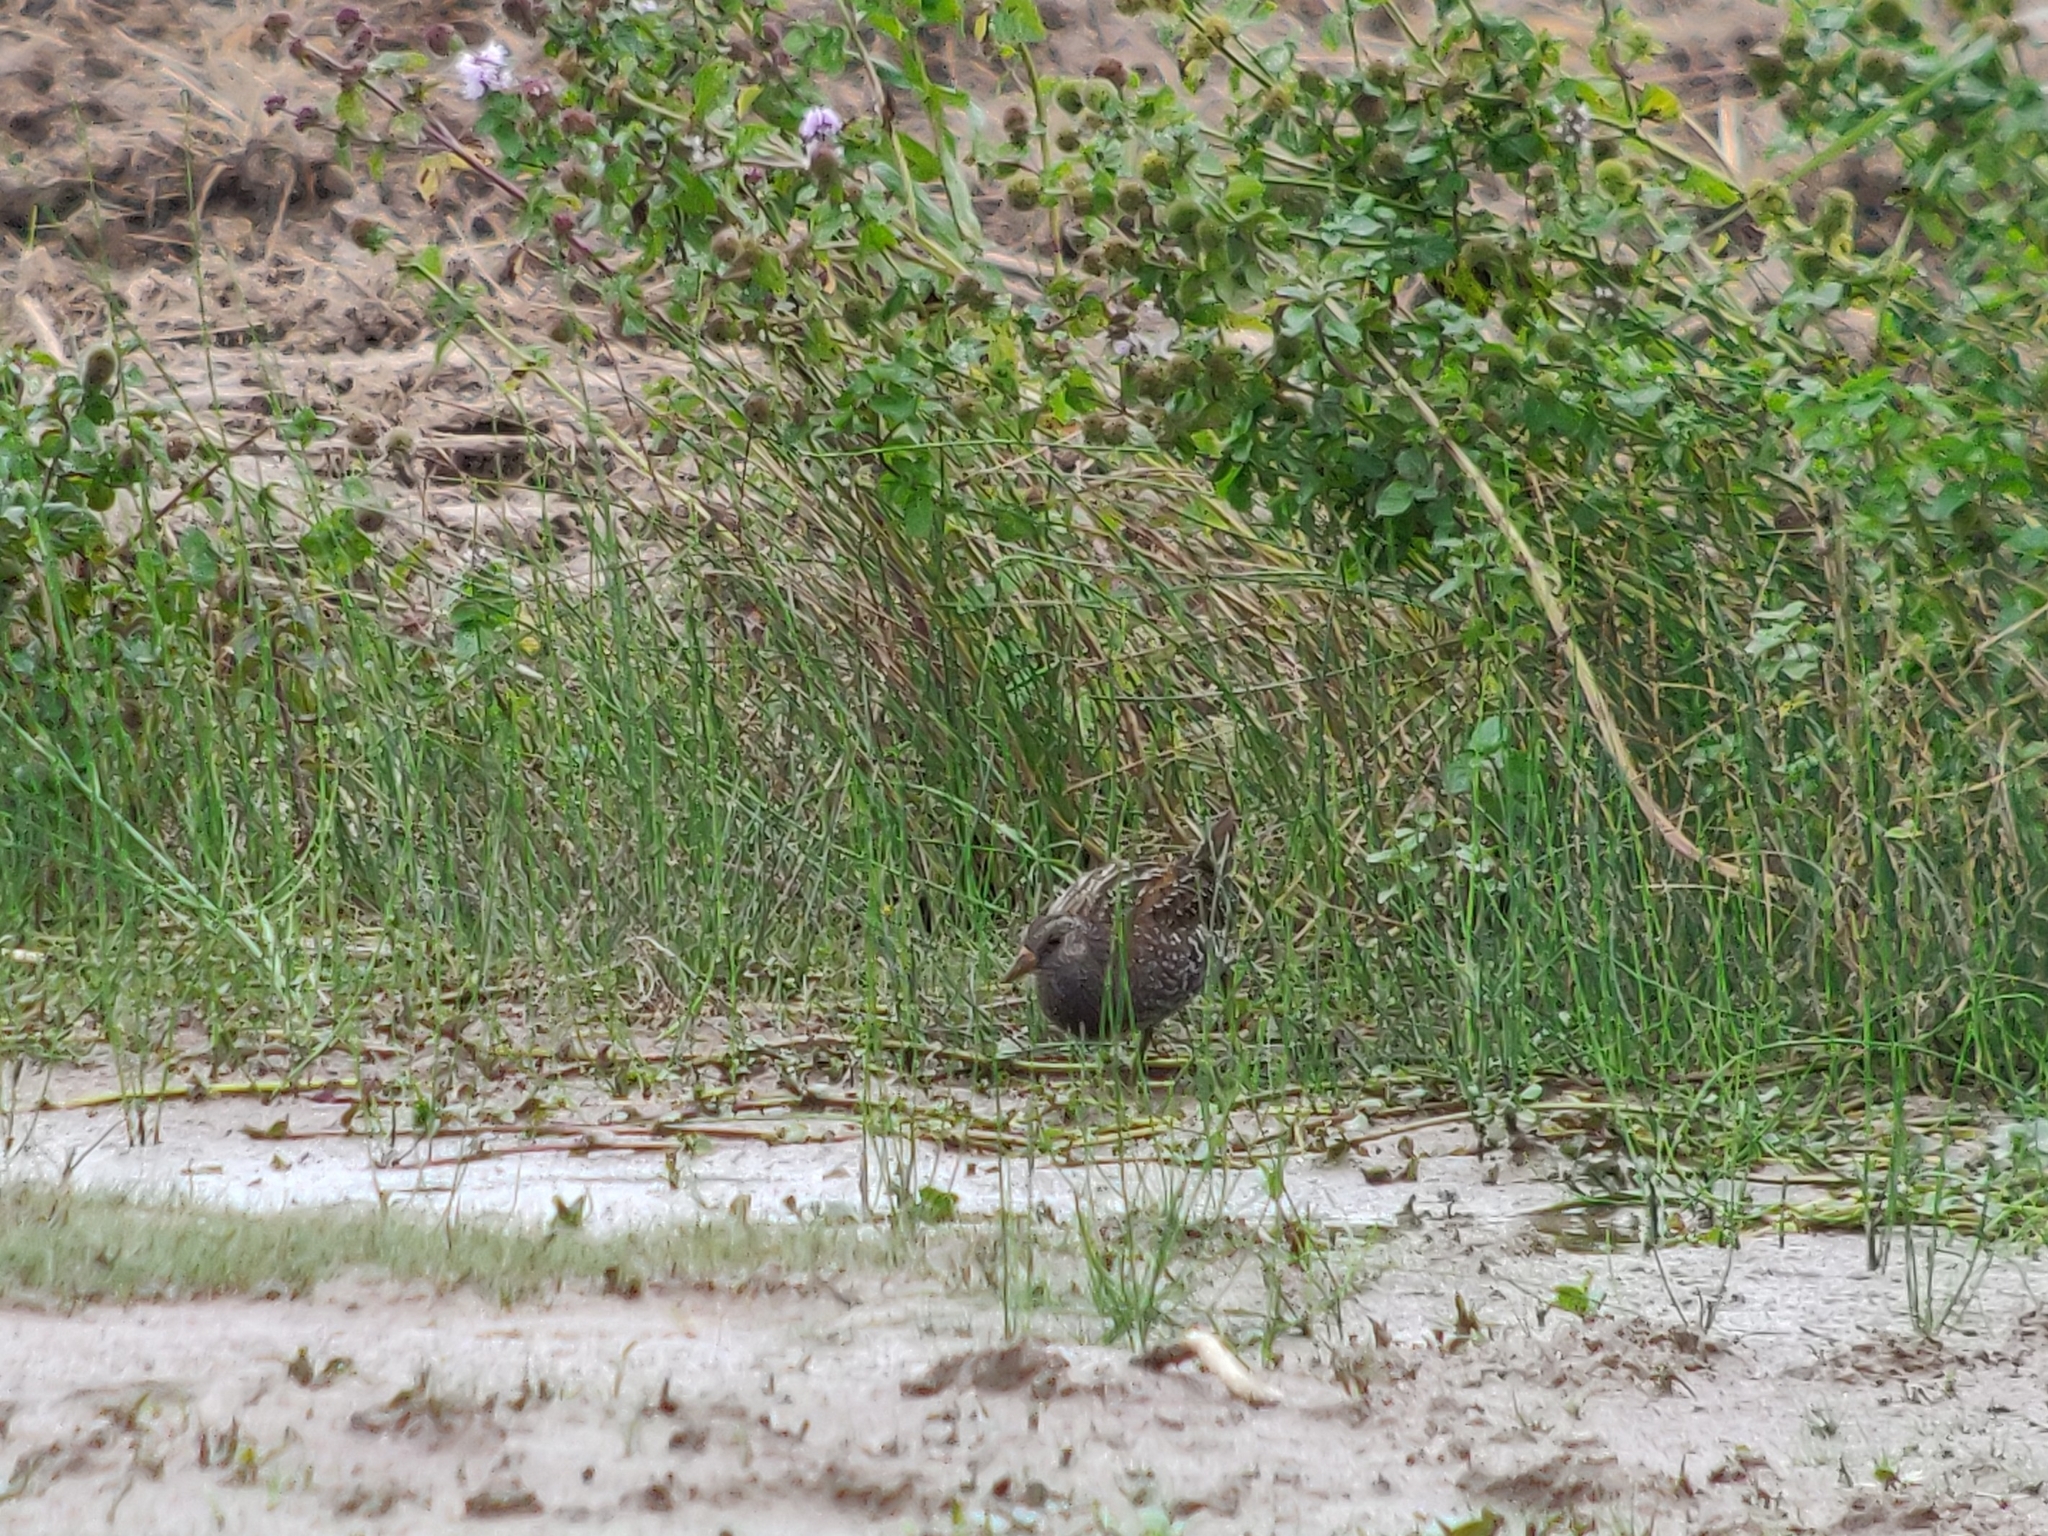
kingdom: Animalia
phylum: Chordata
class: Aves
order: Gruiformes
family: Rallidae
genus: Porzana
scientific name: Porzana porzana
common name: Spotted crake
